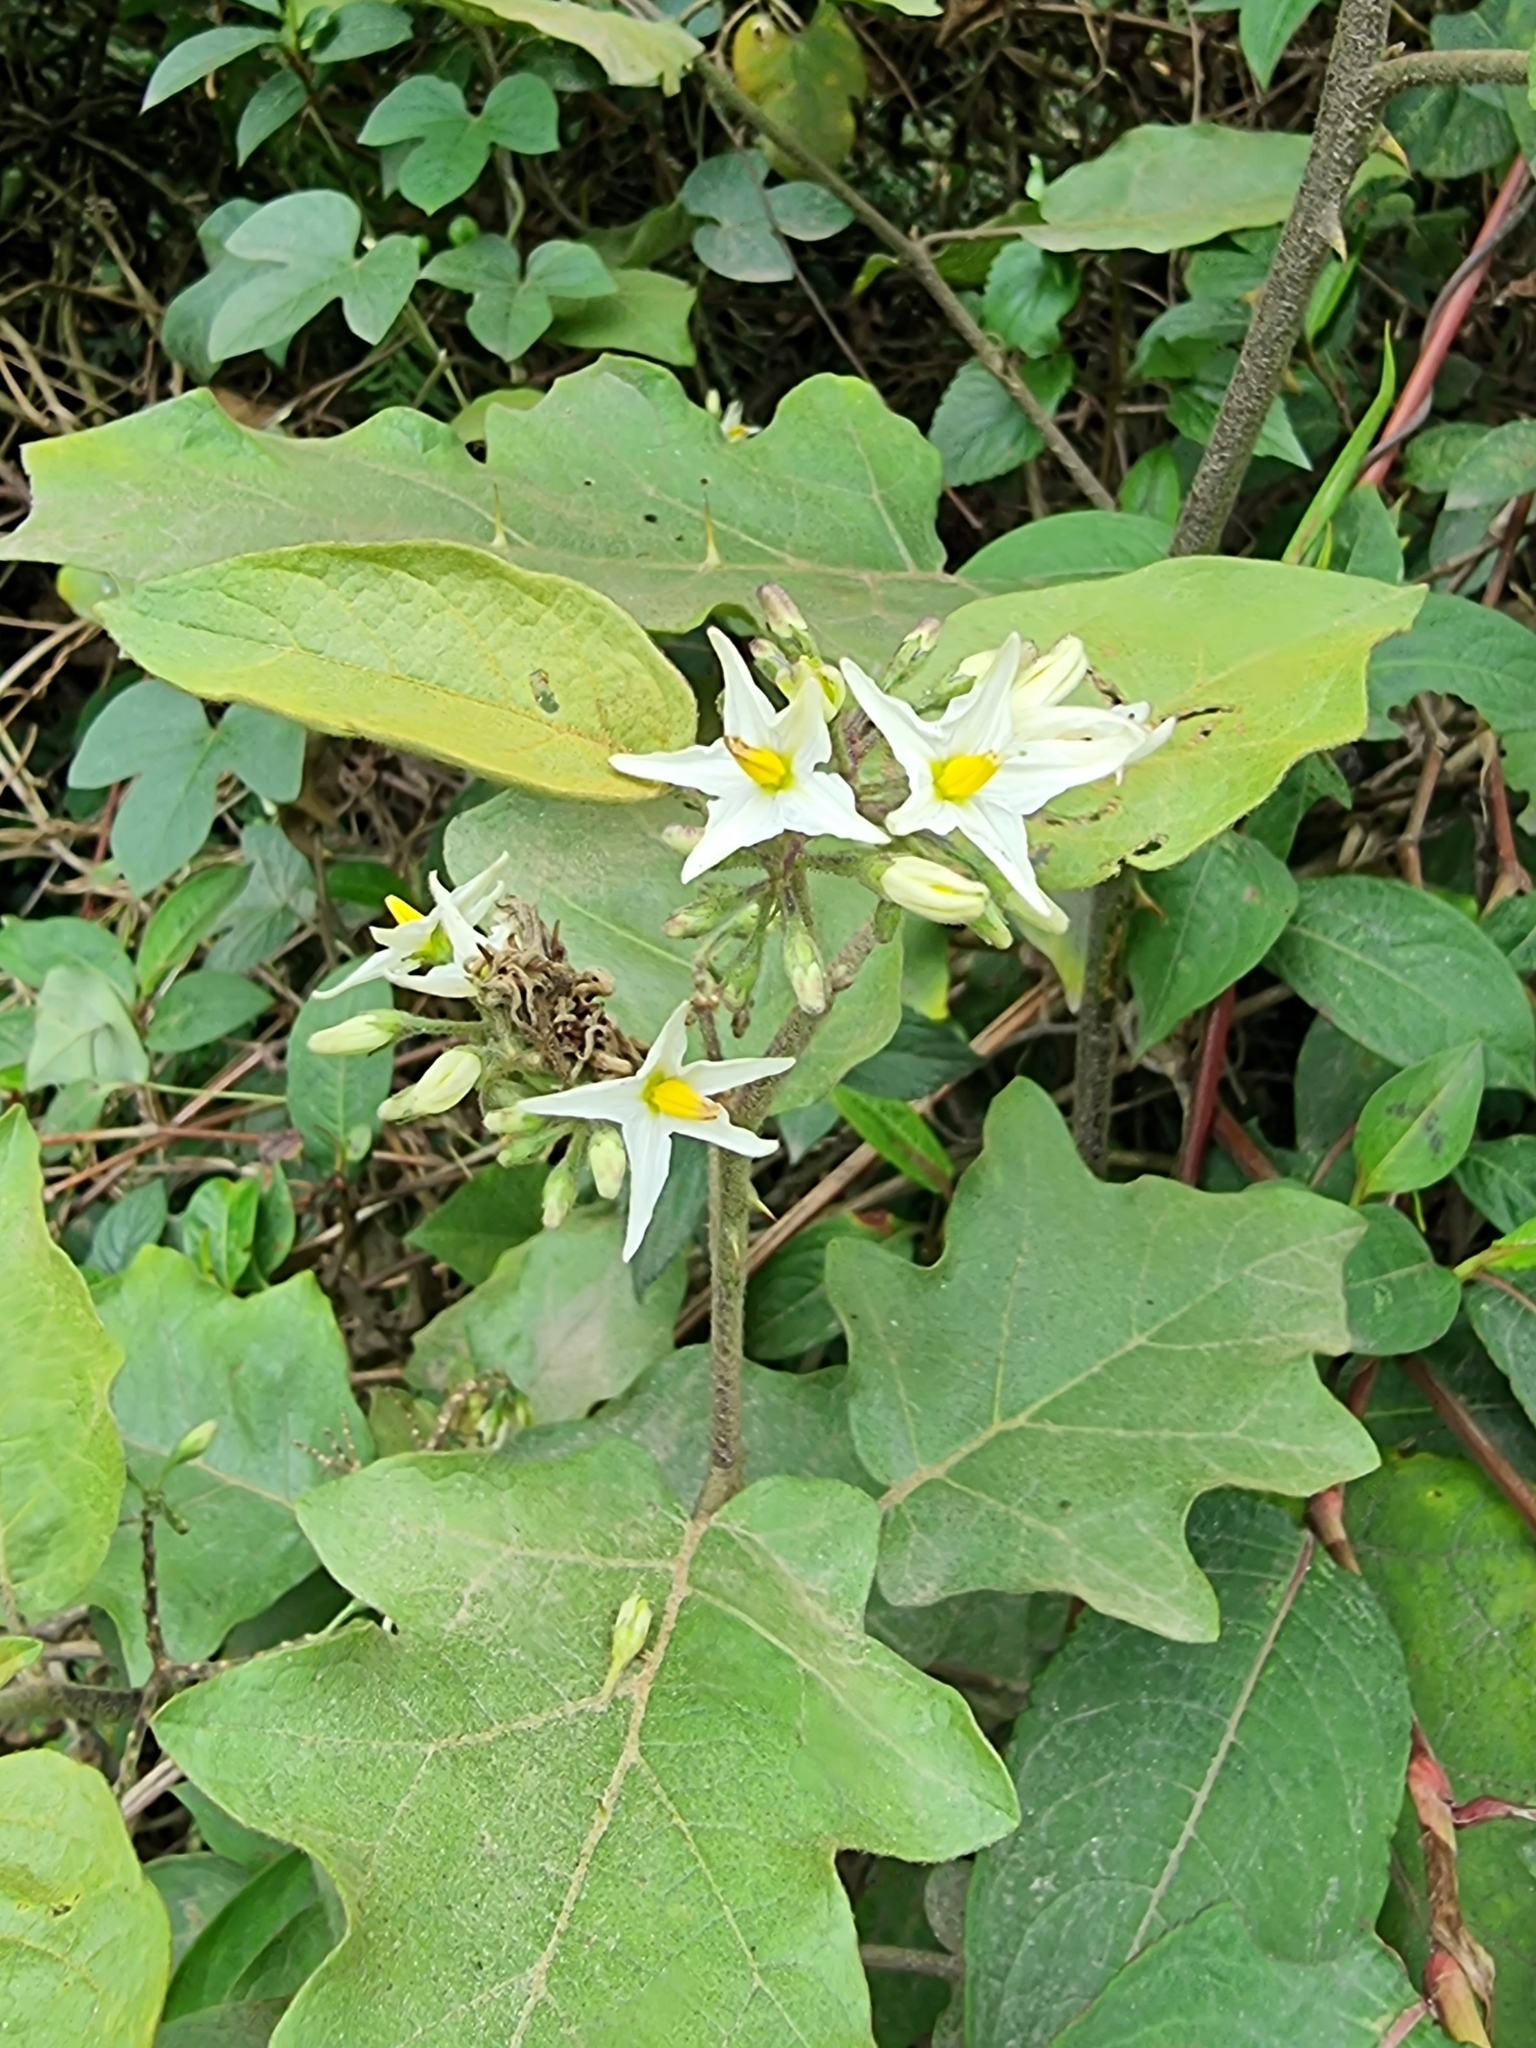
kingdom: Plantae
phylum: Tracheophyta
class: Magnoliopsida
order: Solanales
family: Solanaceae
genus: Solanum
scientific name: Solanum torvum
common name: Turkey berry
